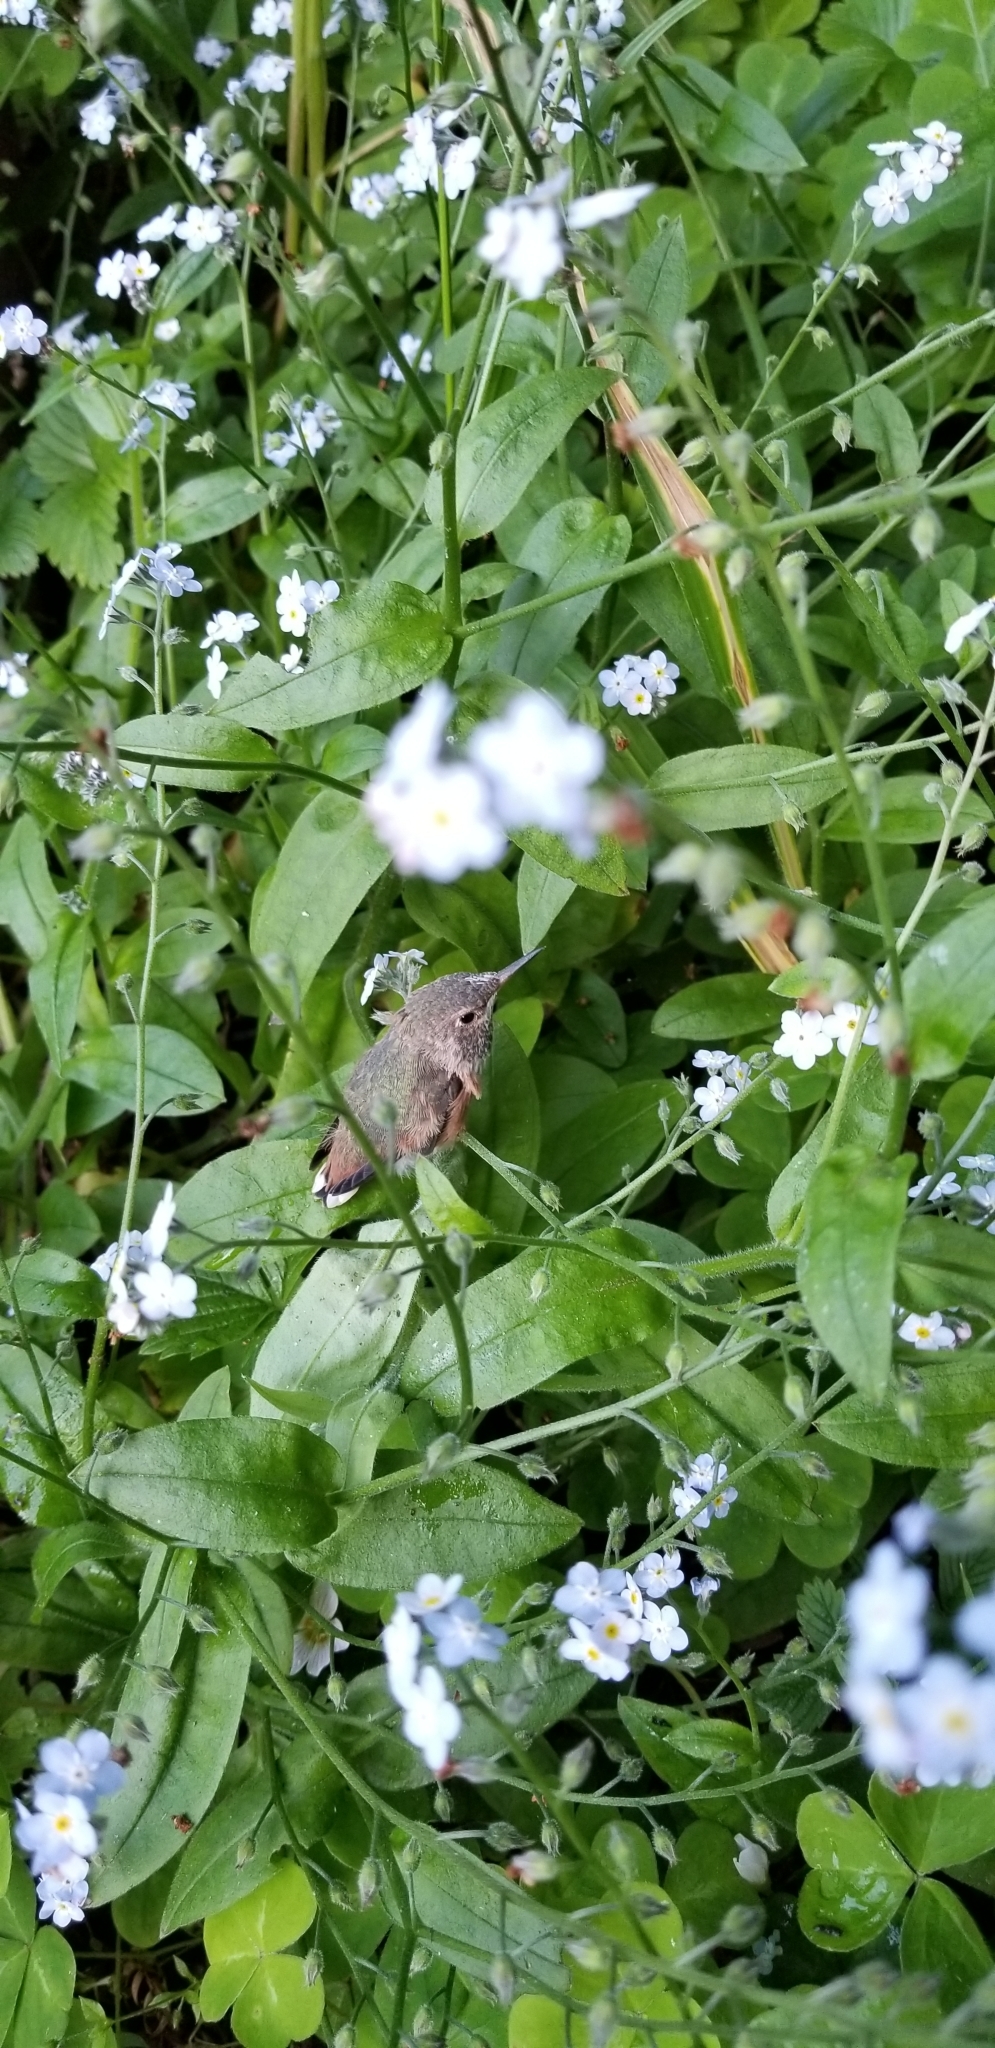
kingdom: Animalia
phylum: Chordata
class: Aves
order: Apodiformes
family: Trochilidae
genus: Selasphorus
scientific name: Selasphorus sasin
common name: Allen's hummingbird
